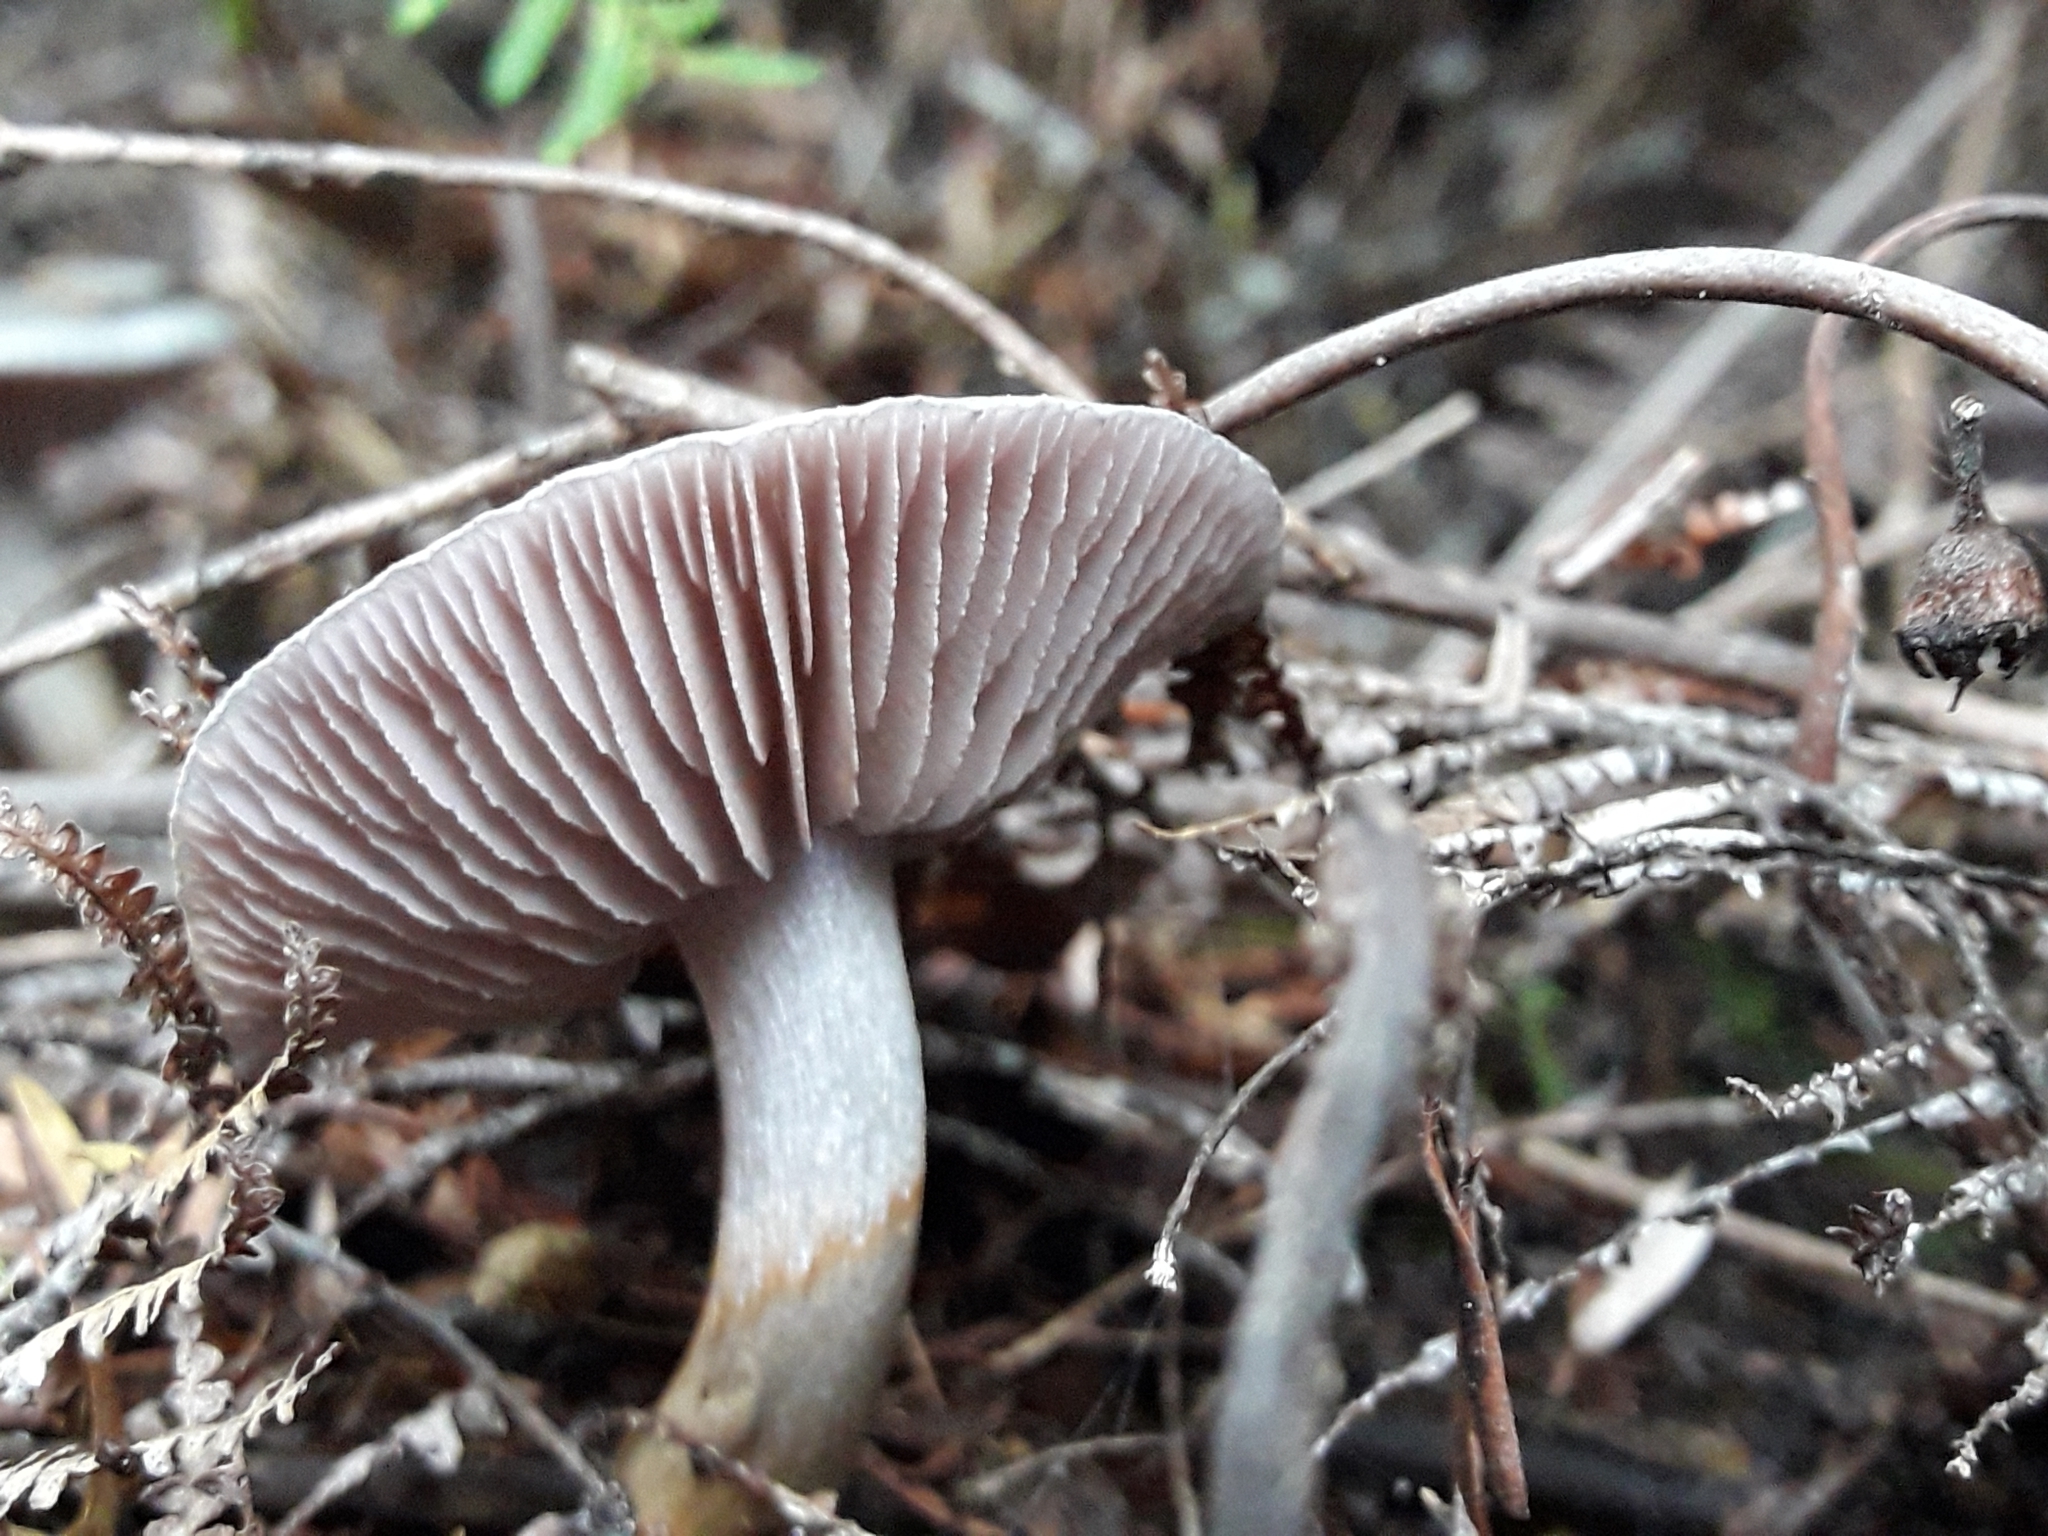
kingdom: Fungi
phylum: Basidiomycota
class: Agaricomycetes
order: Agaricales
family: Cortinariaceae
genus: Cortinarius
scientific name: Cortinarius rotundisporus
